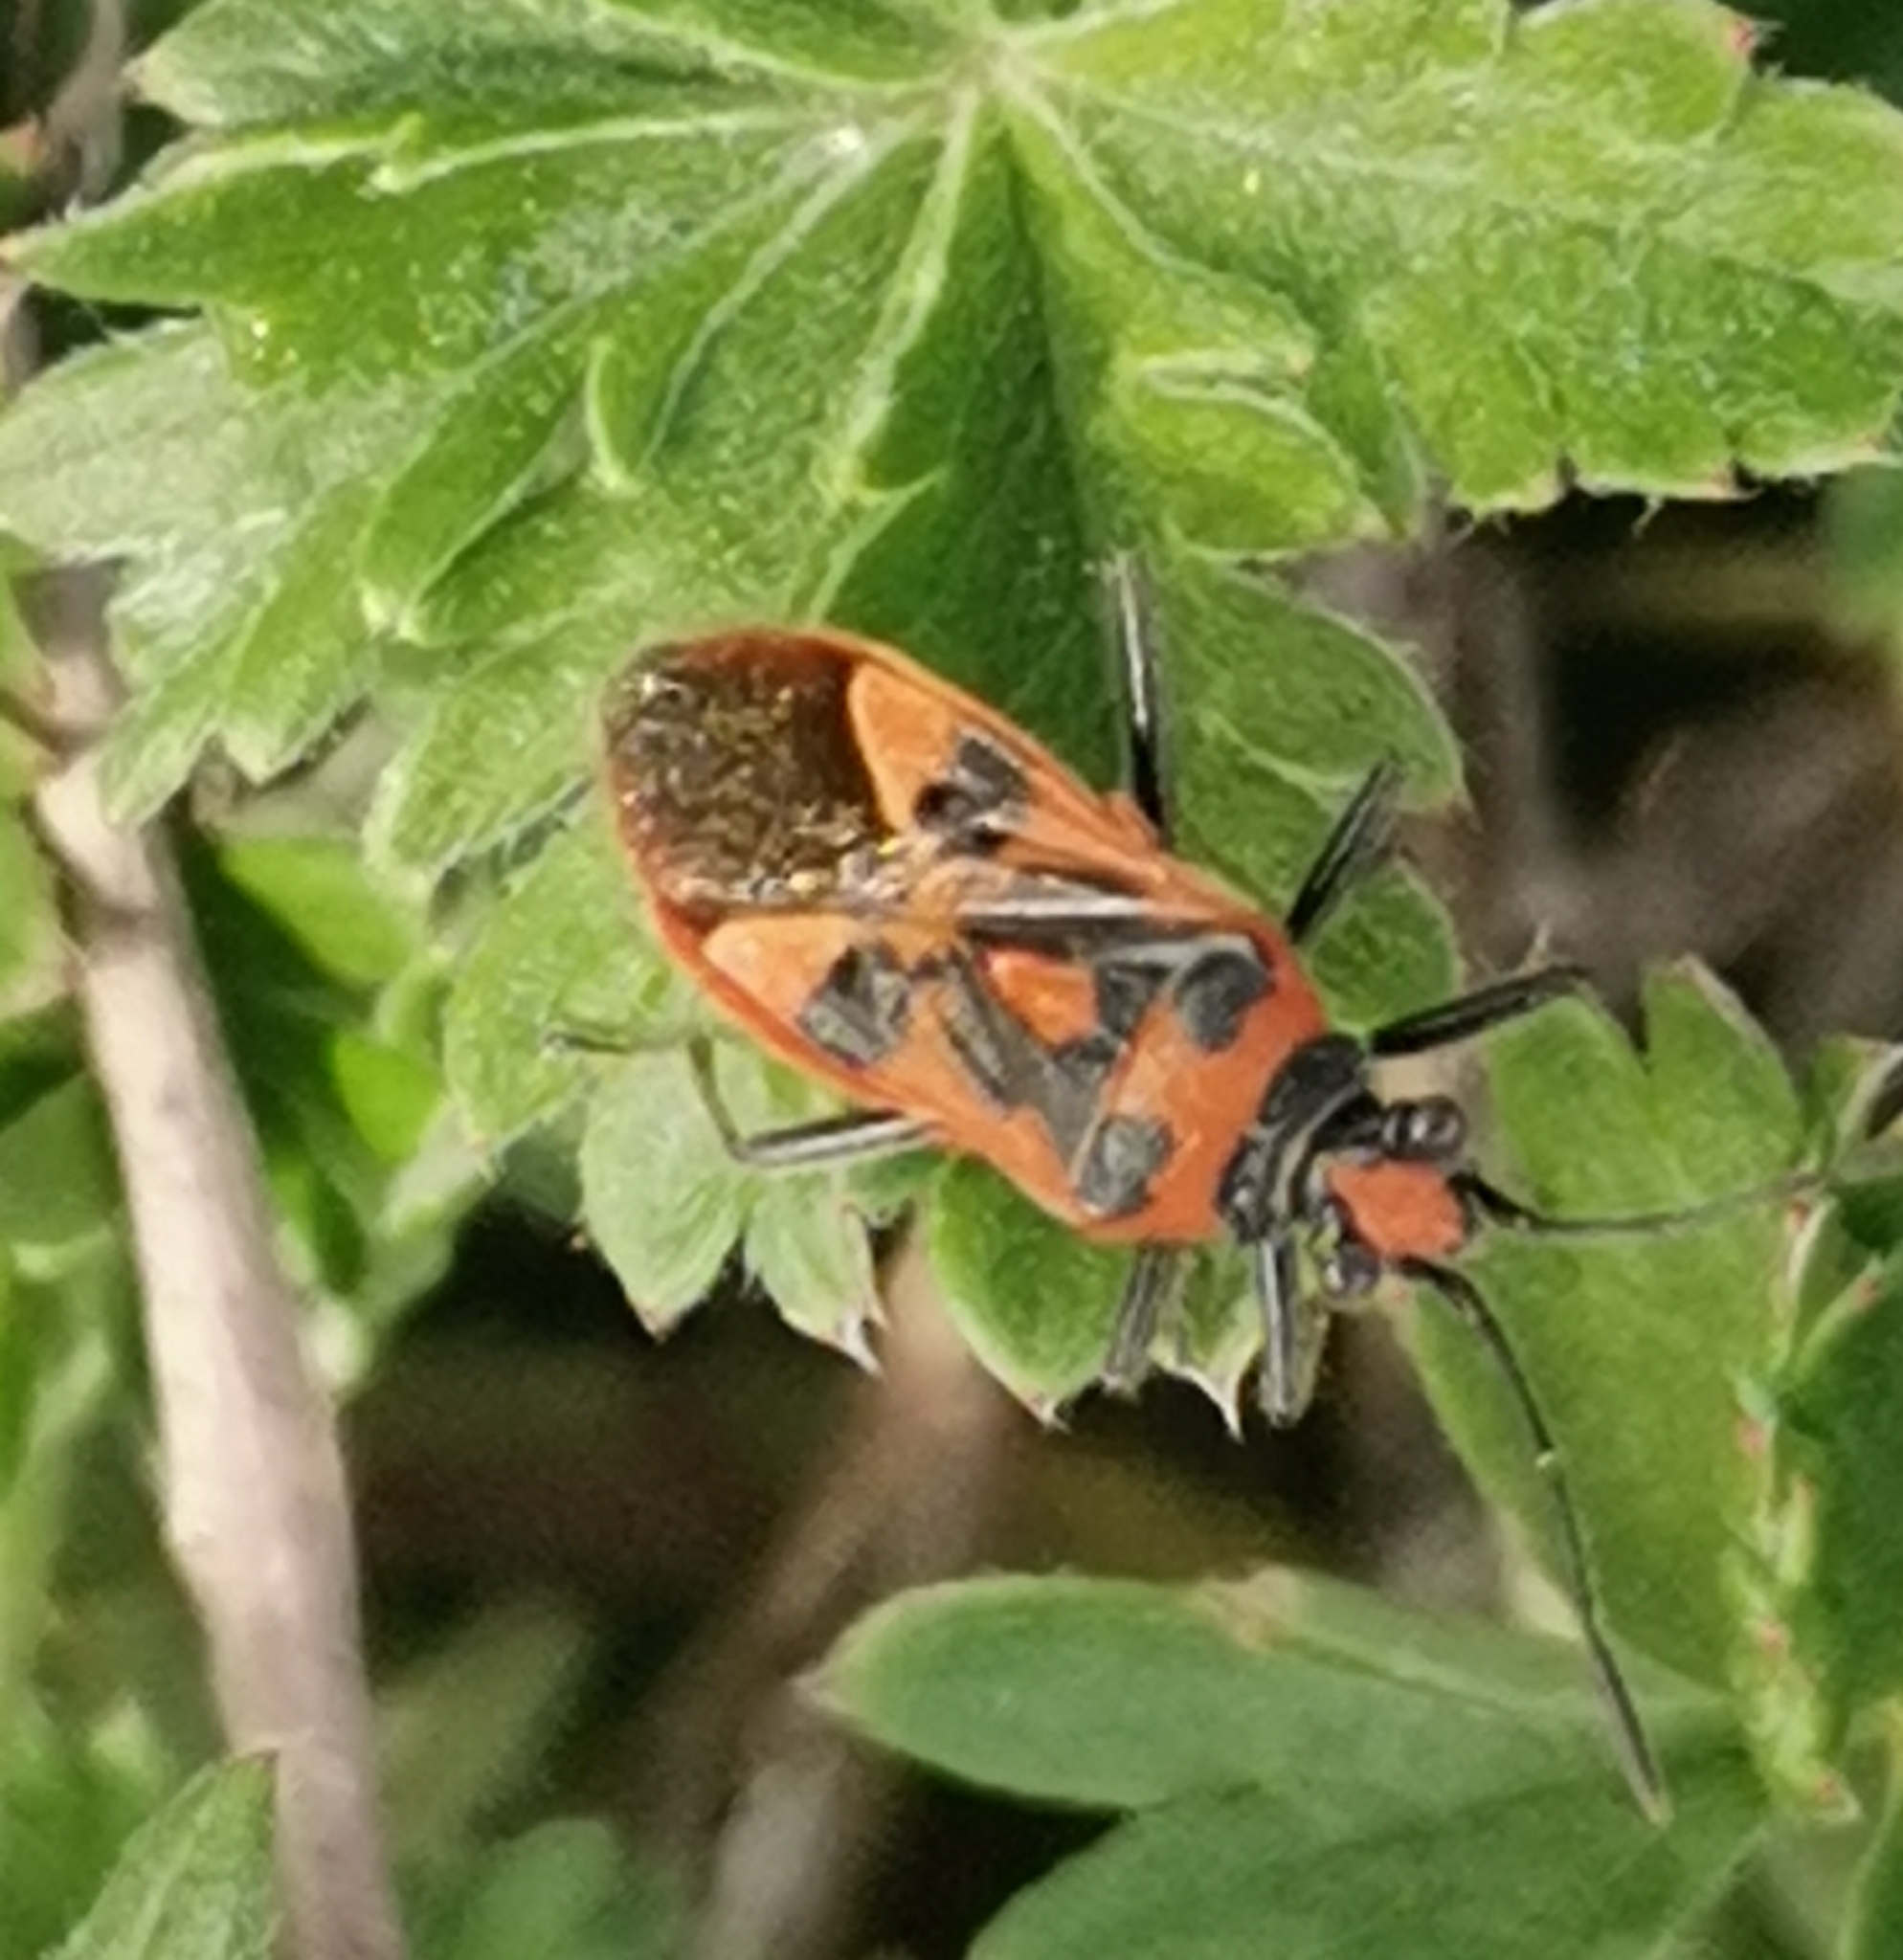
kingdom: Animalia
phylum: Arthropoda
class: Insecta
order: Hemiptera
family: Rhopalidae
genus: Corizus
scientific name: Corizus hyoscyami
